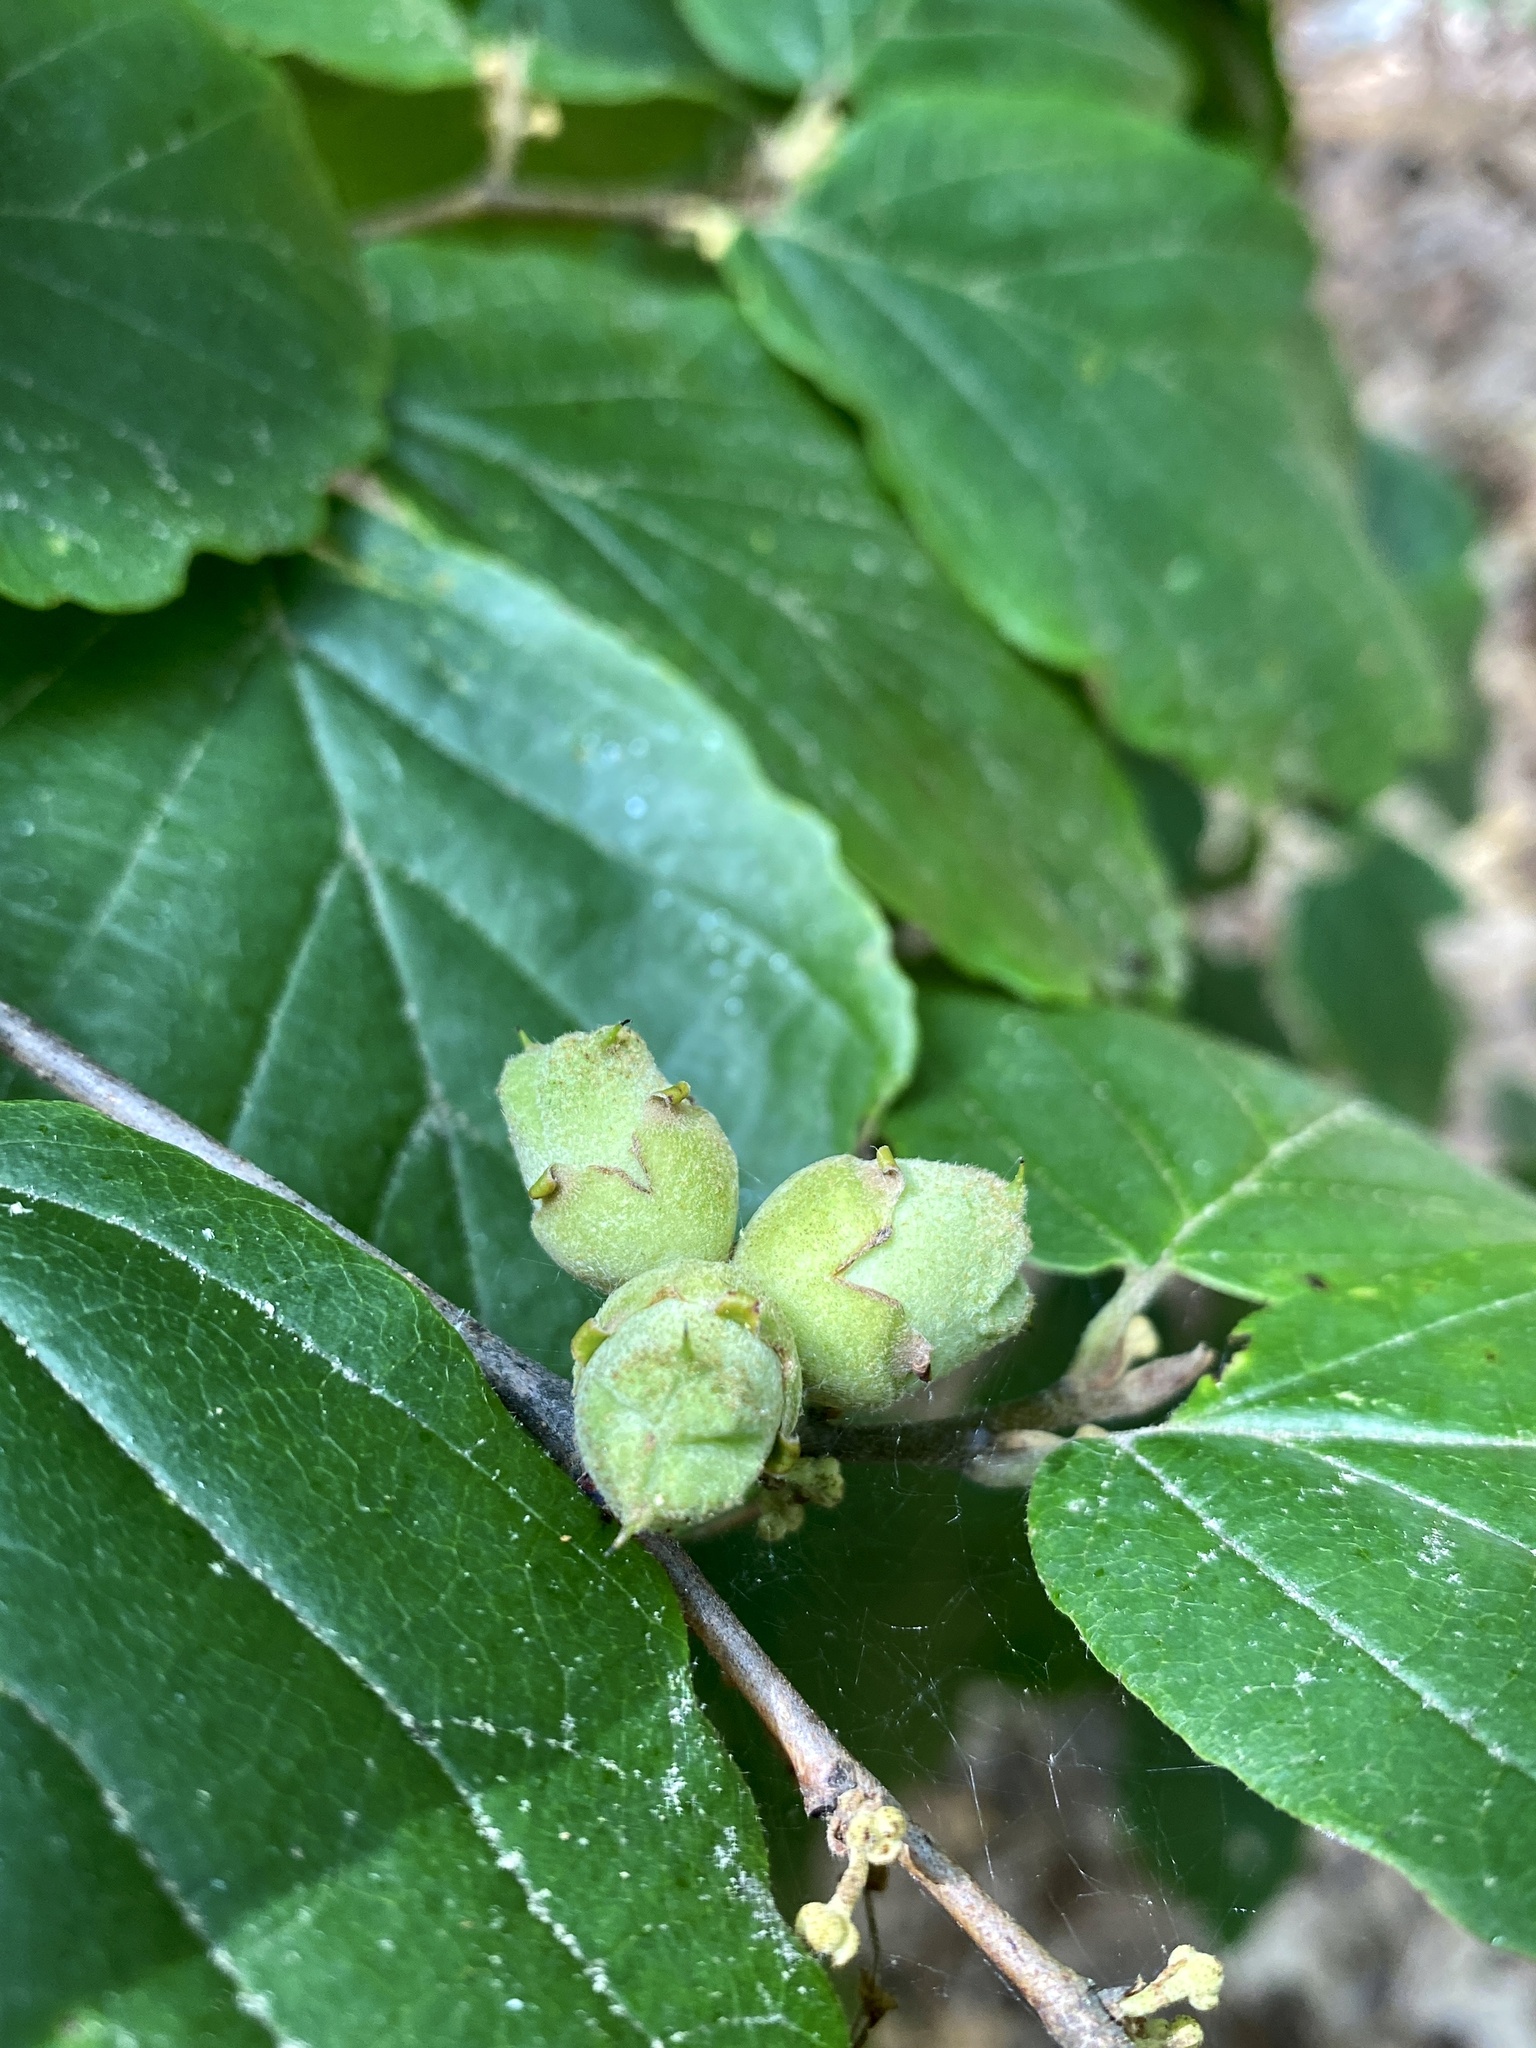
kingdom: Plantae
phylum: Tracheophyta
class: Magnoliopsida
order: Saxifragales
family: Hamamelidaceae
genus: Hamamelis
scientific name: Hamamelis virginiana
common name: Witch-hazel
